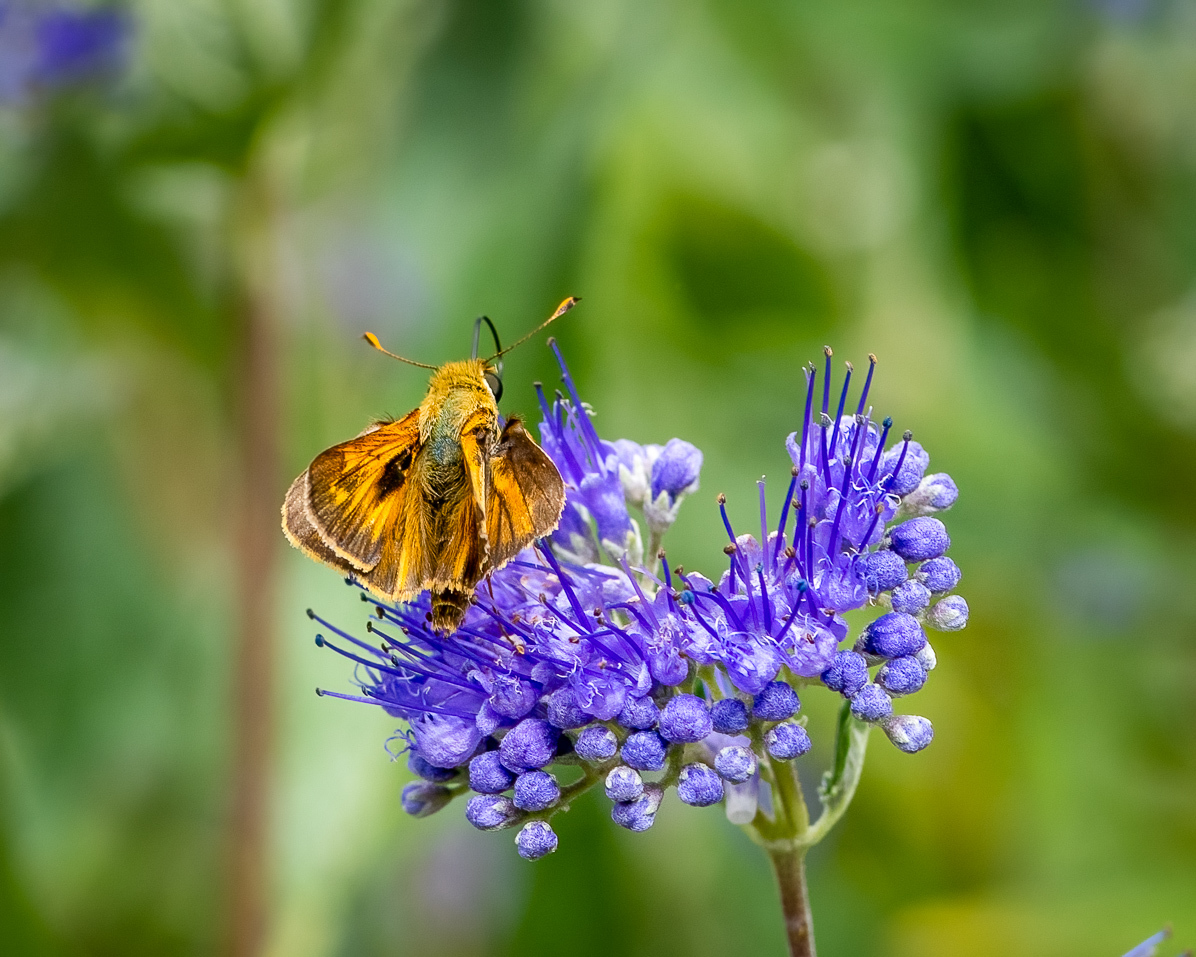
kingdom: Animalia
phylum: Arthropoda
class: Insecta
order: Lepidoptera
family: Hesperiidae
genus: Atalopedes
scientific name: Atalopedes
